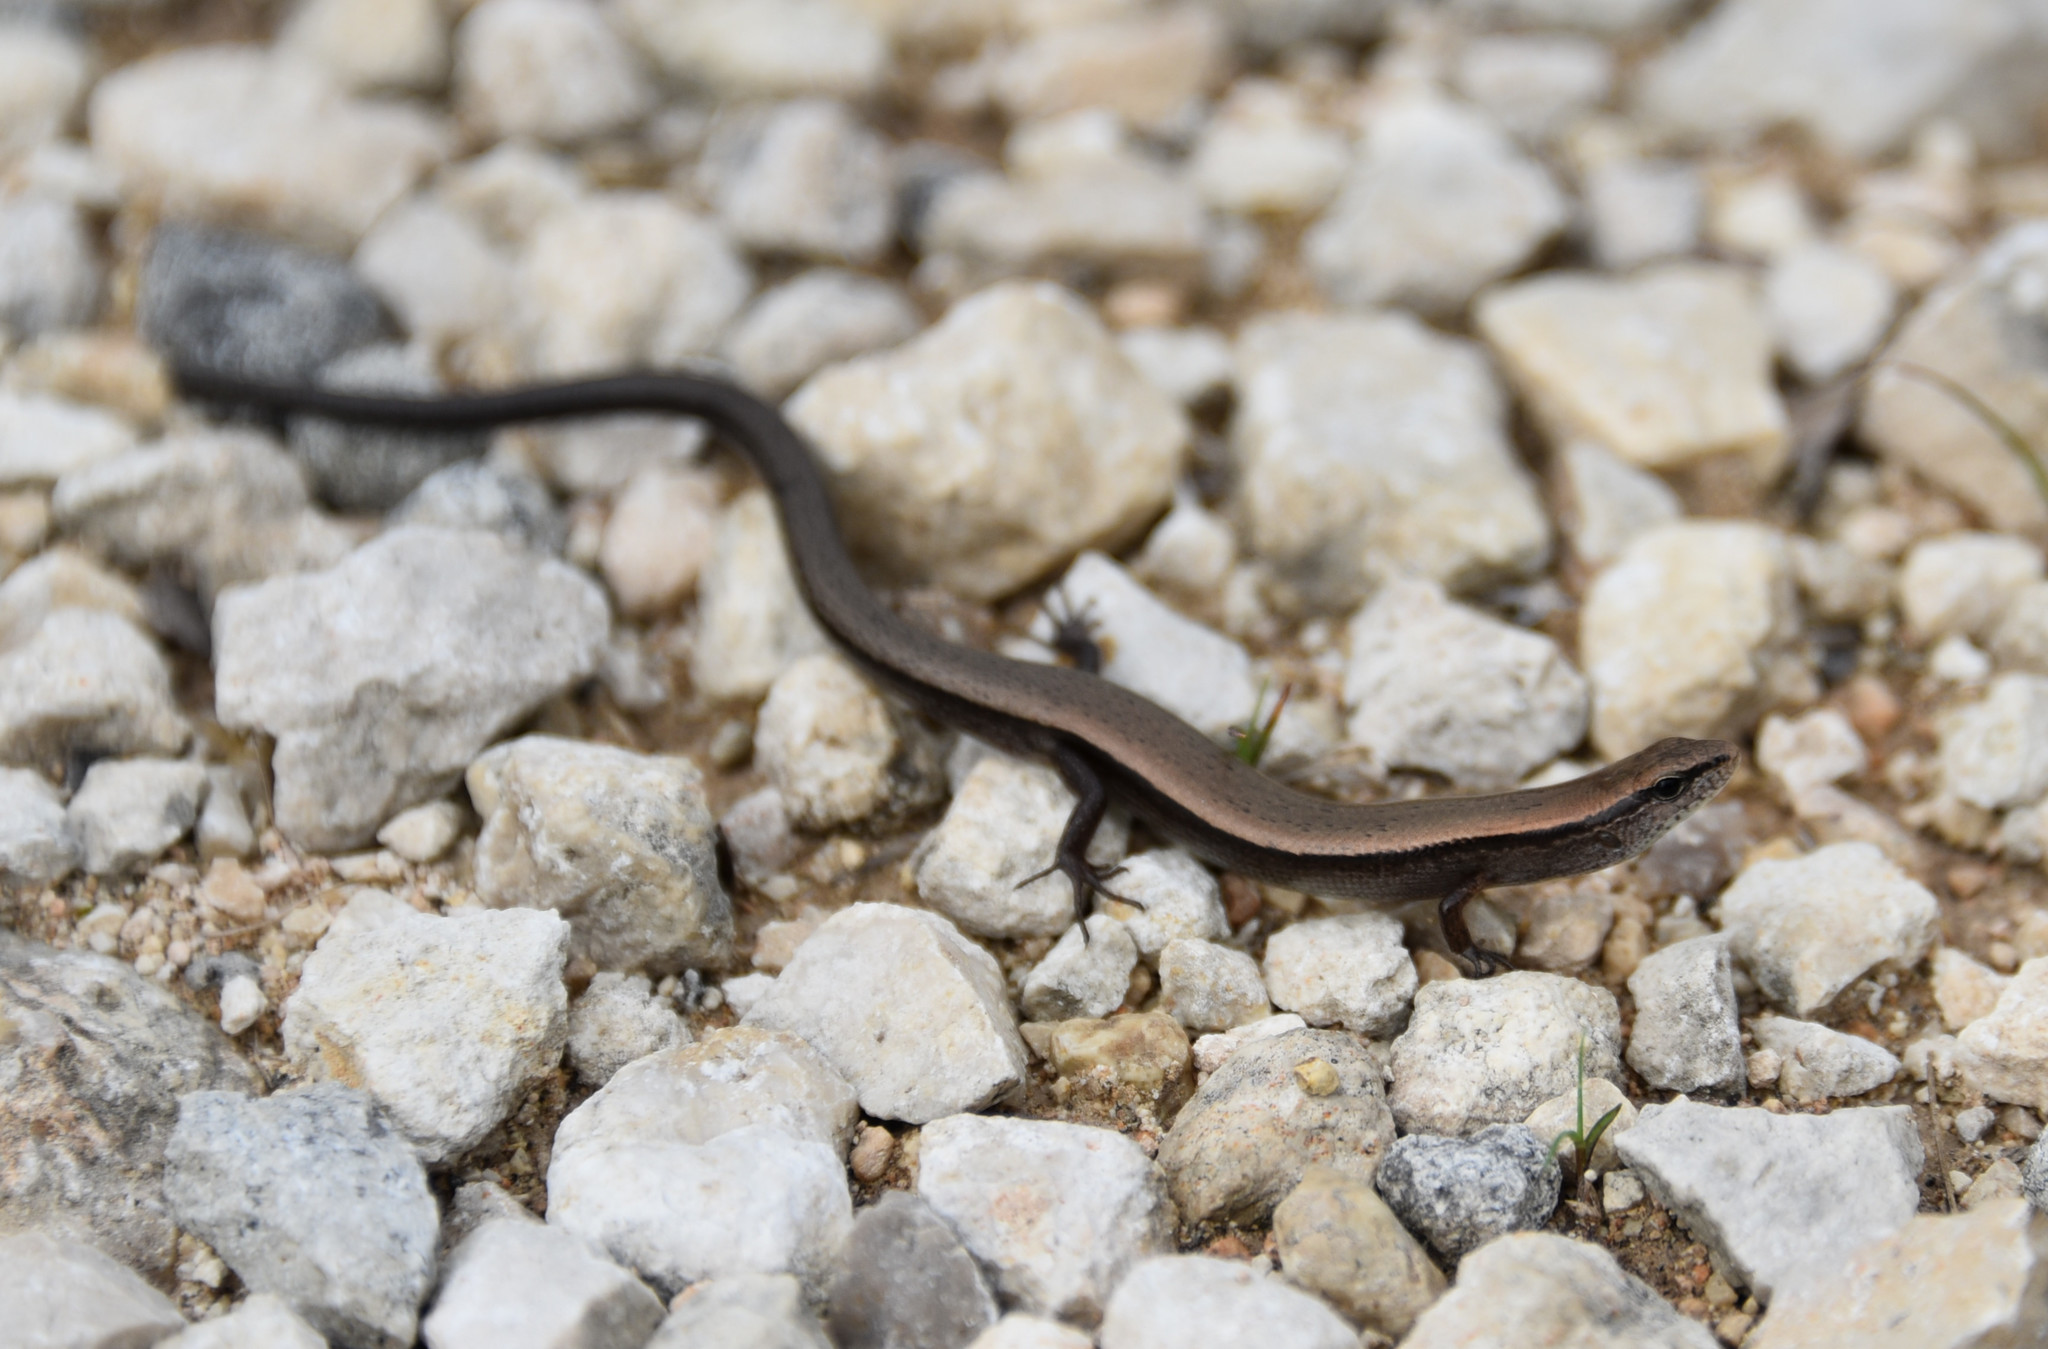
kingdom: Animalia
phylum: Chordata
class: Squamata
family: Scincidae
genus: Scincella
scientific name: Scincella lateralis
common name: Ground skink
